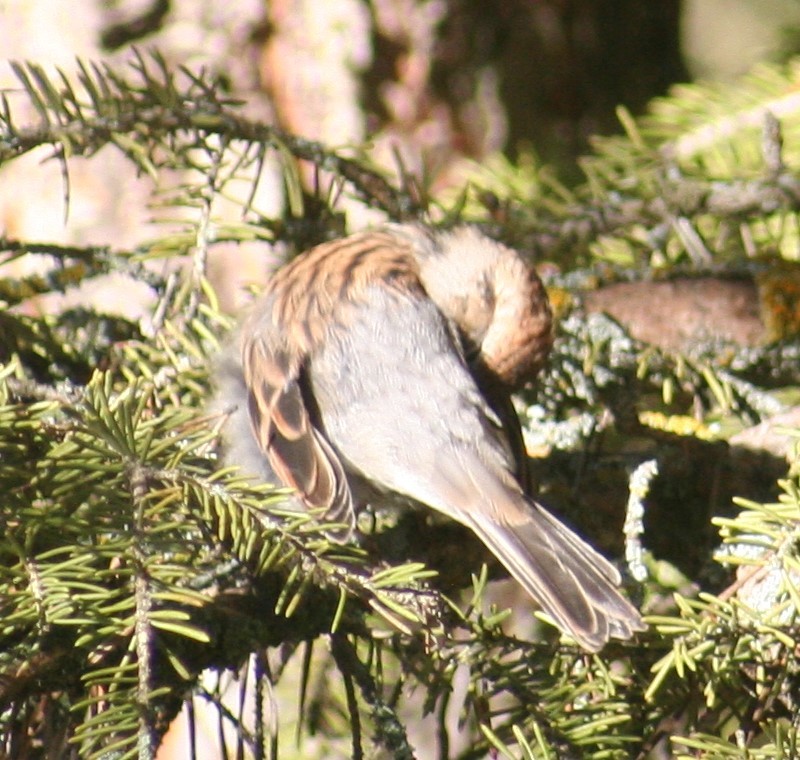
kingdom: Animalia
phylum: Chordata
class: Aves
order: Passeriformes
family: Passerellidae
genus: Spizella
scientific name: Spizella passerina
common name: Chipping sparrow
